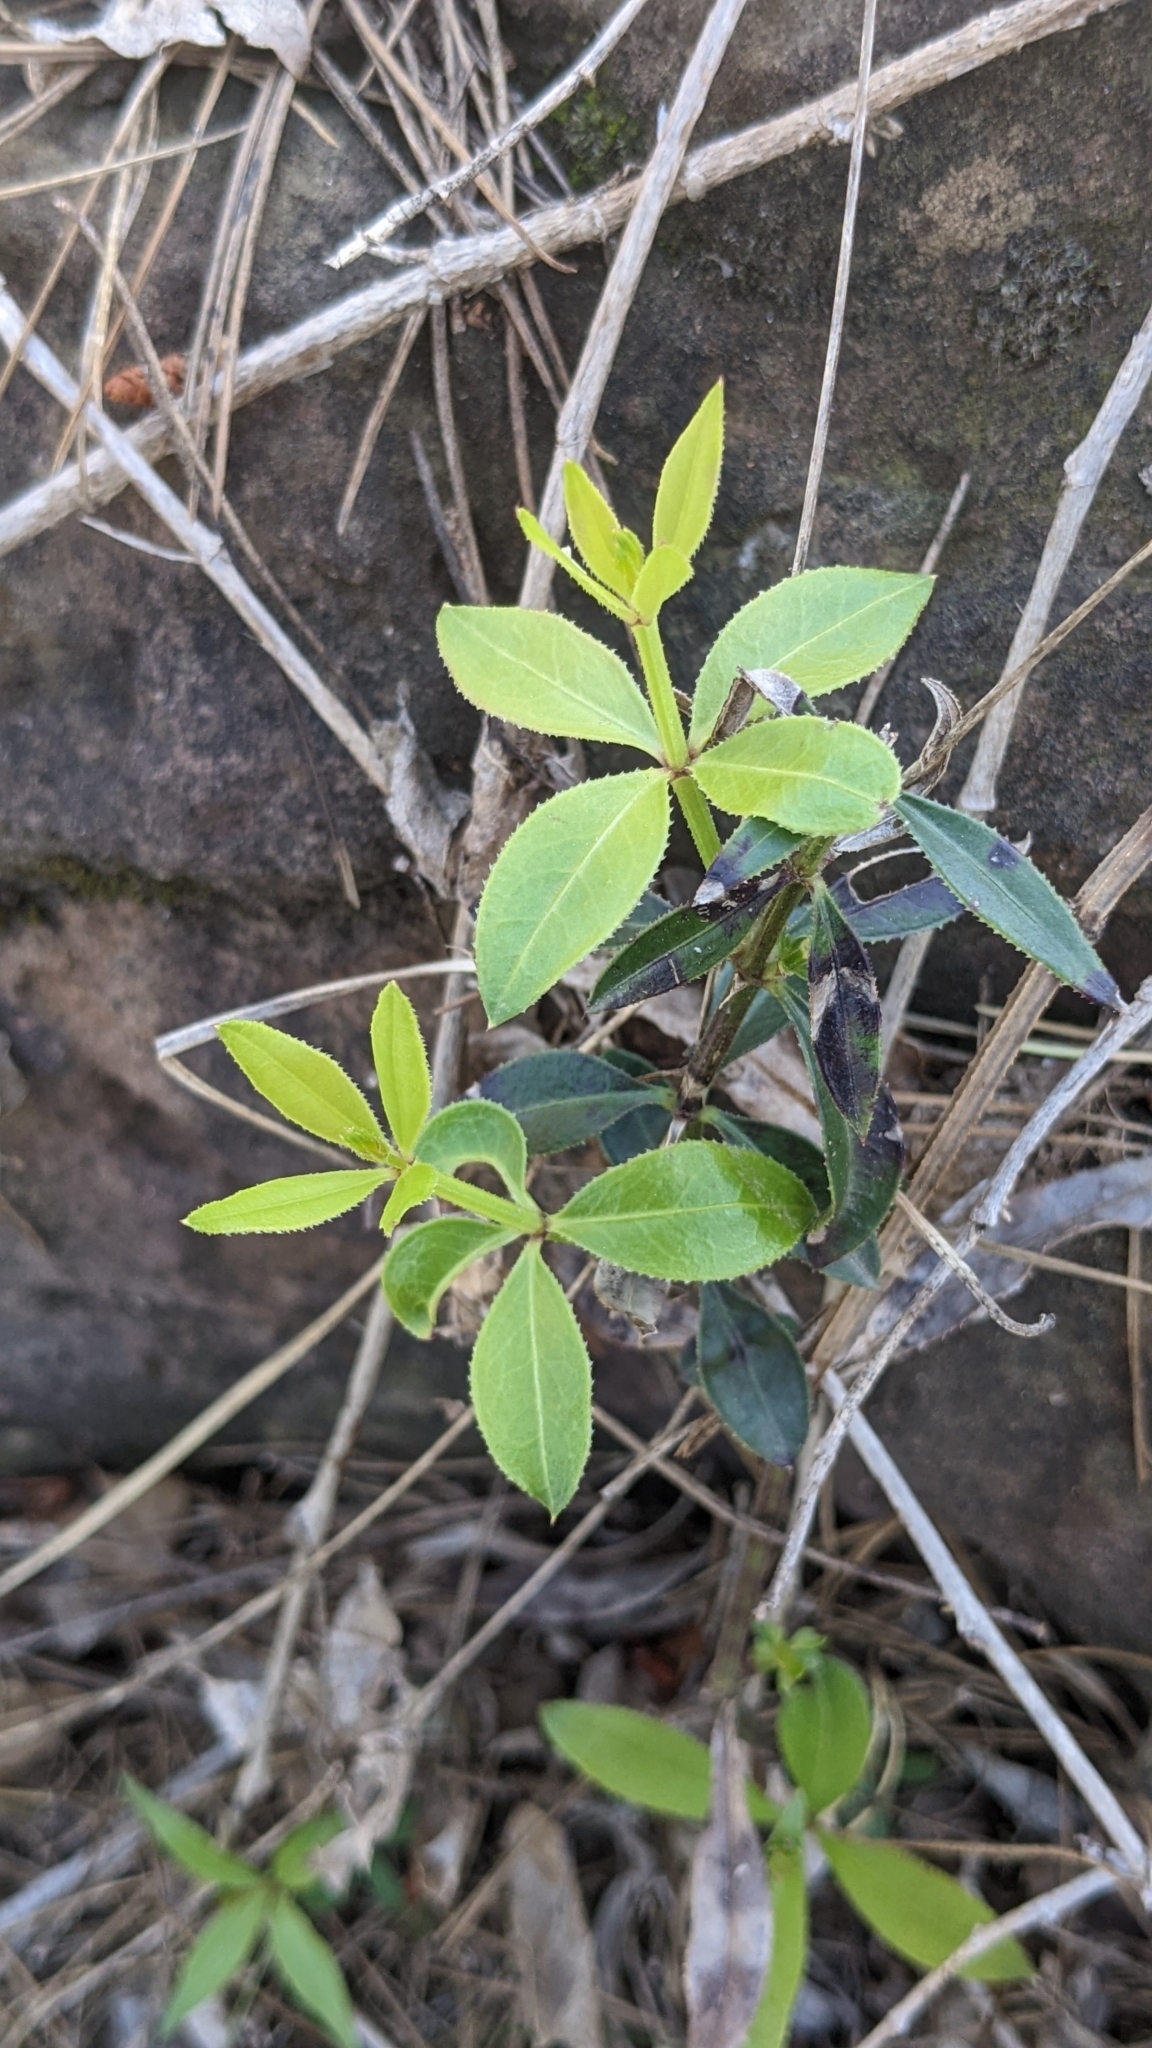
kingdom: Plantae
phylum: Tracheophyta
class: Magnoliopsida
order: Gentianales
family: Rubiaceae
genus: Rubia
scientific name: Rubia peregrina
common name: Wild madder
